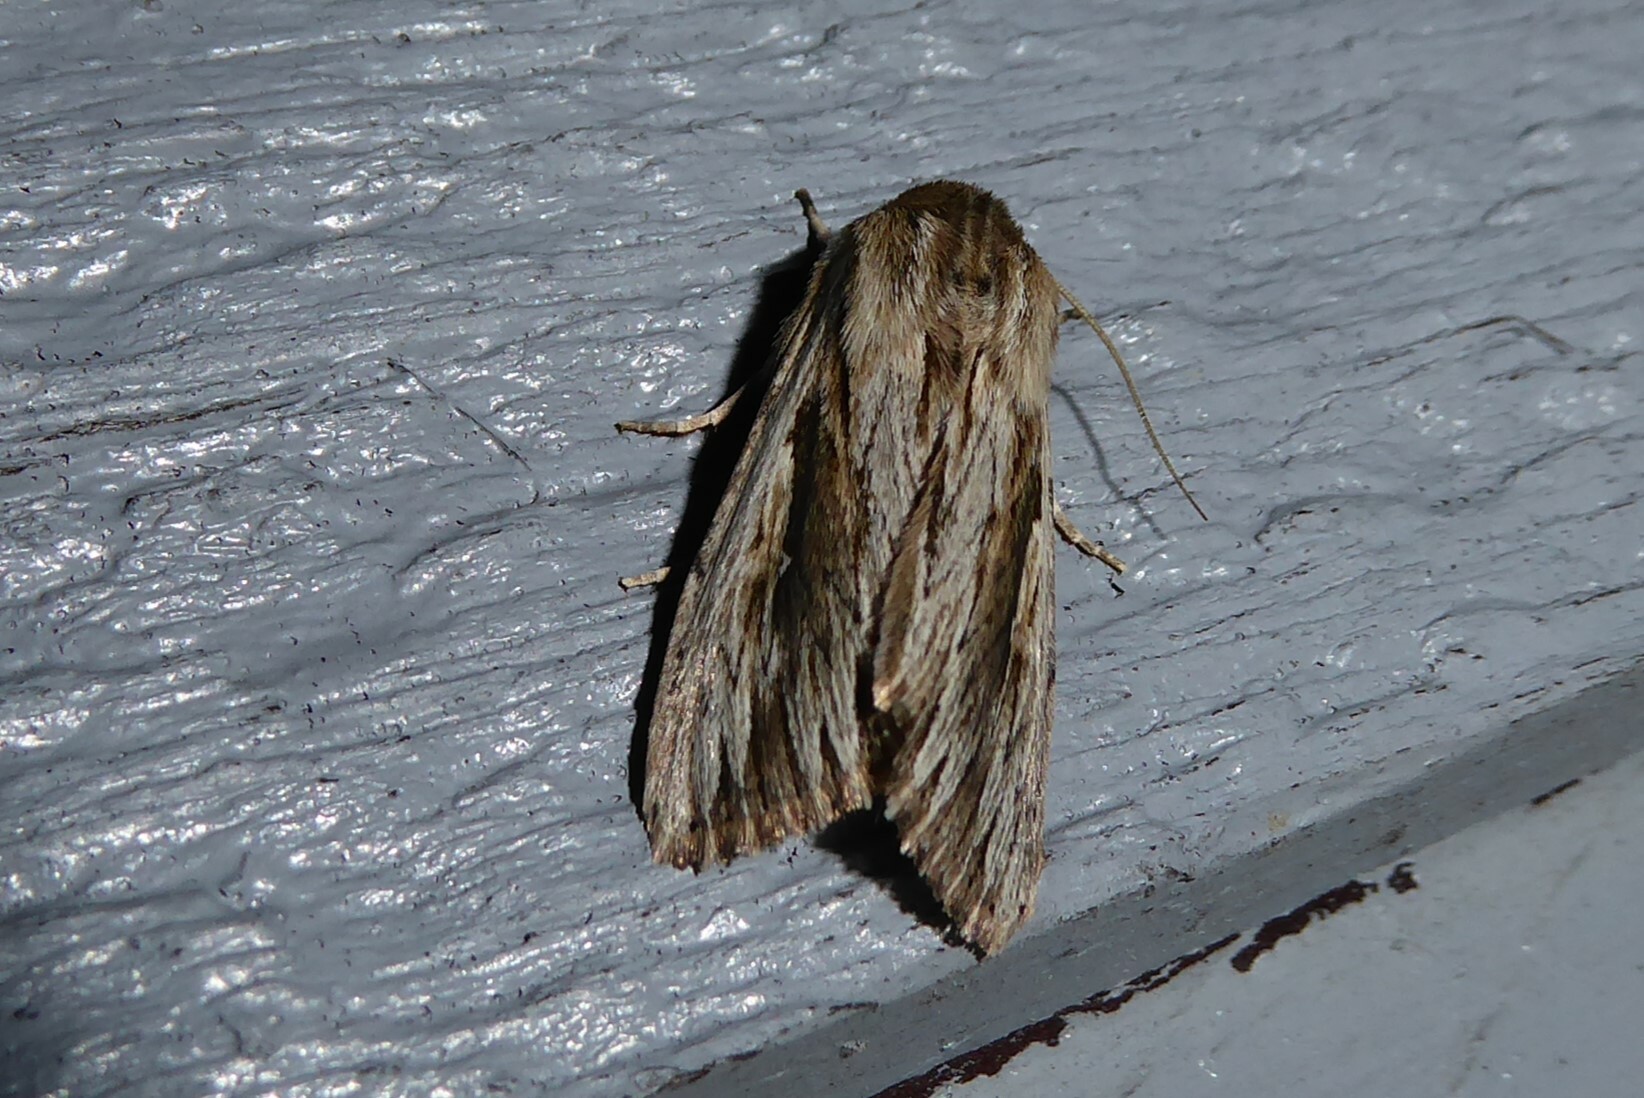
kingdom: Animalia
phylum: Arthropoda
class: Insecta
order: Lepidoptera
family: Noctuidae
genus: Persectania
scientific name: Persectania aversa
